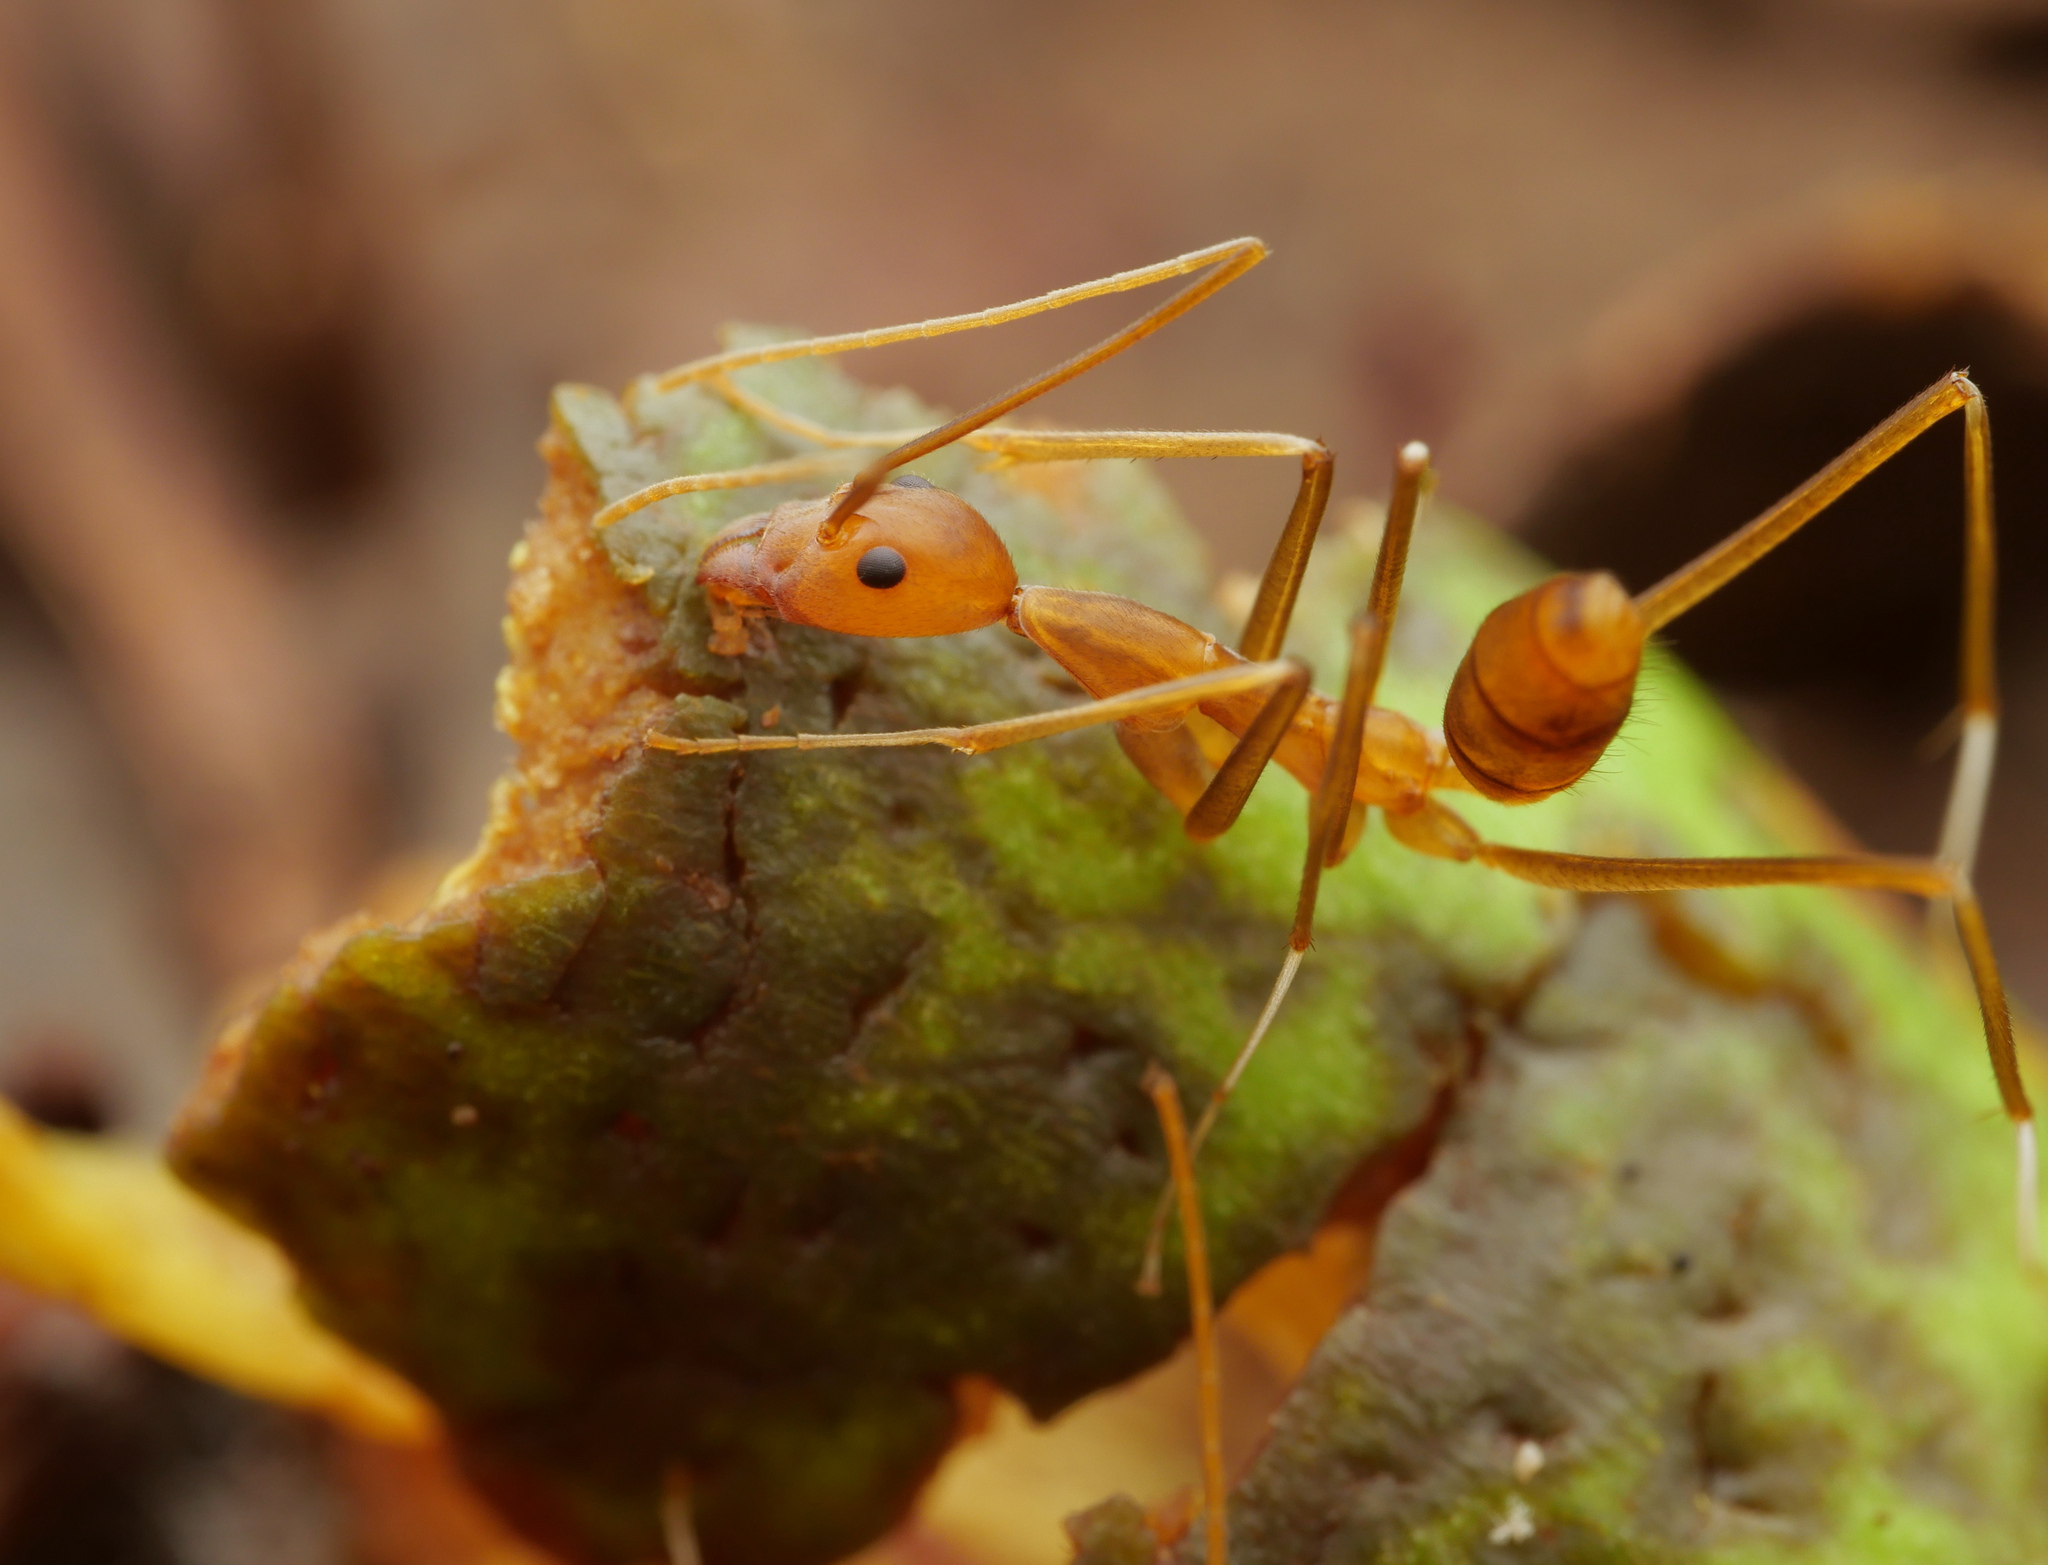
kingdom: Animalia
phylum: Arthropoda
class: Insecta
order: Hymenoptera
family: Formicidae
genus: Leptomyrmex
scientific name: Leptomyrmex puberulus
